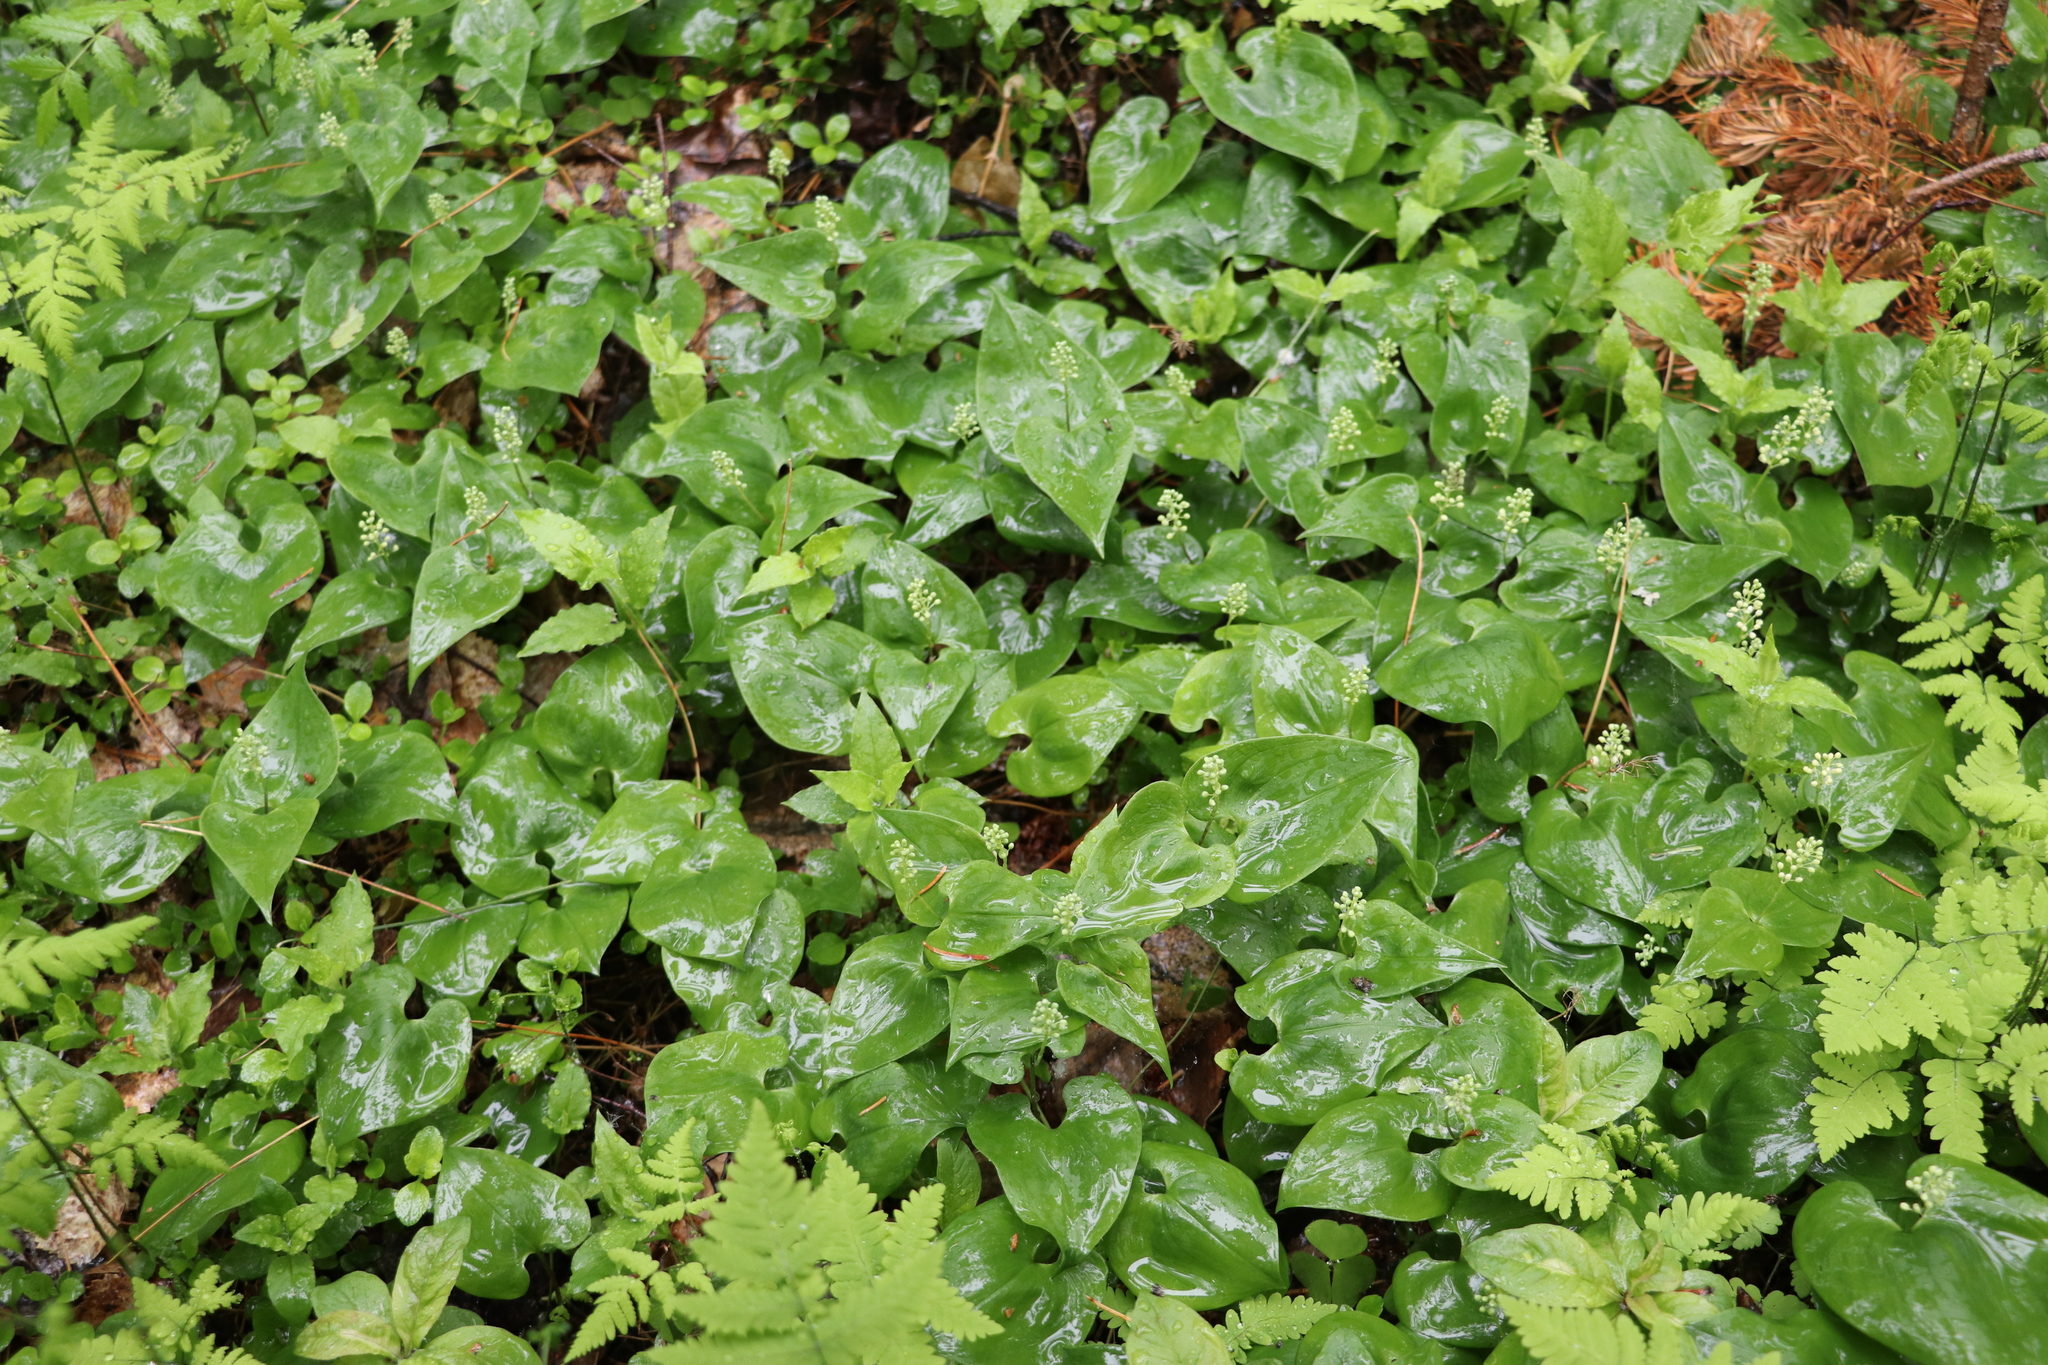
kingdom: Plantae
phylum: Tracheophyta
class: Liliopsida
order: Asparagales
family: Asparagaceae
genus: Maianthemum
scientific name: Maianthemum bifolium
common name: May lily
